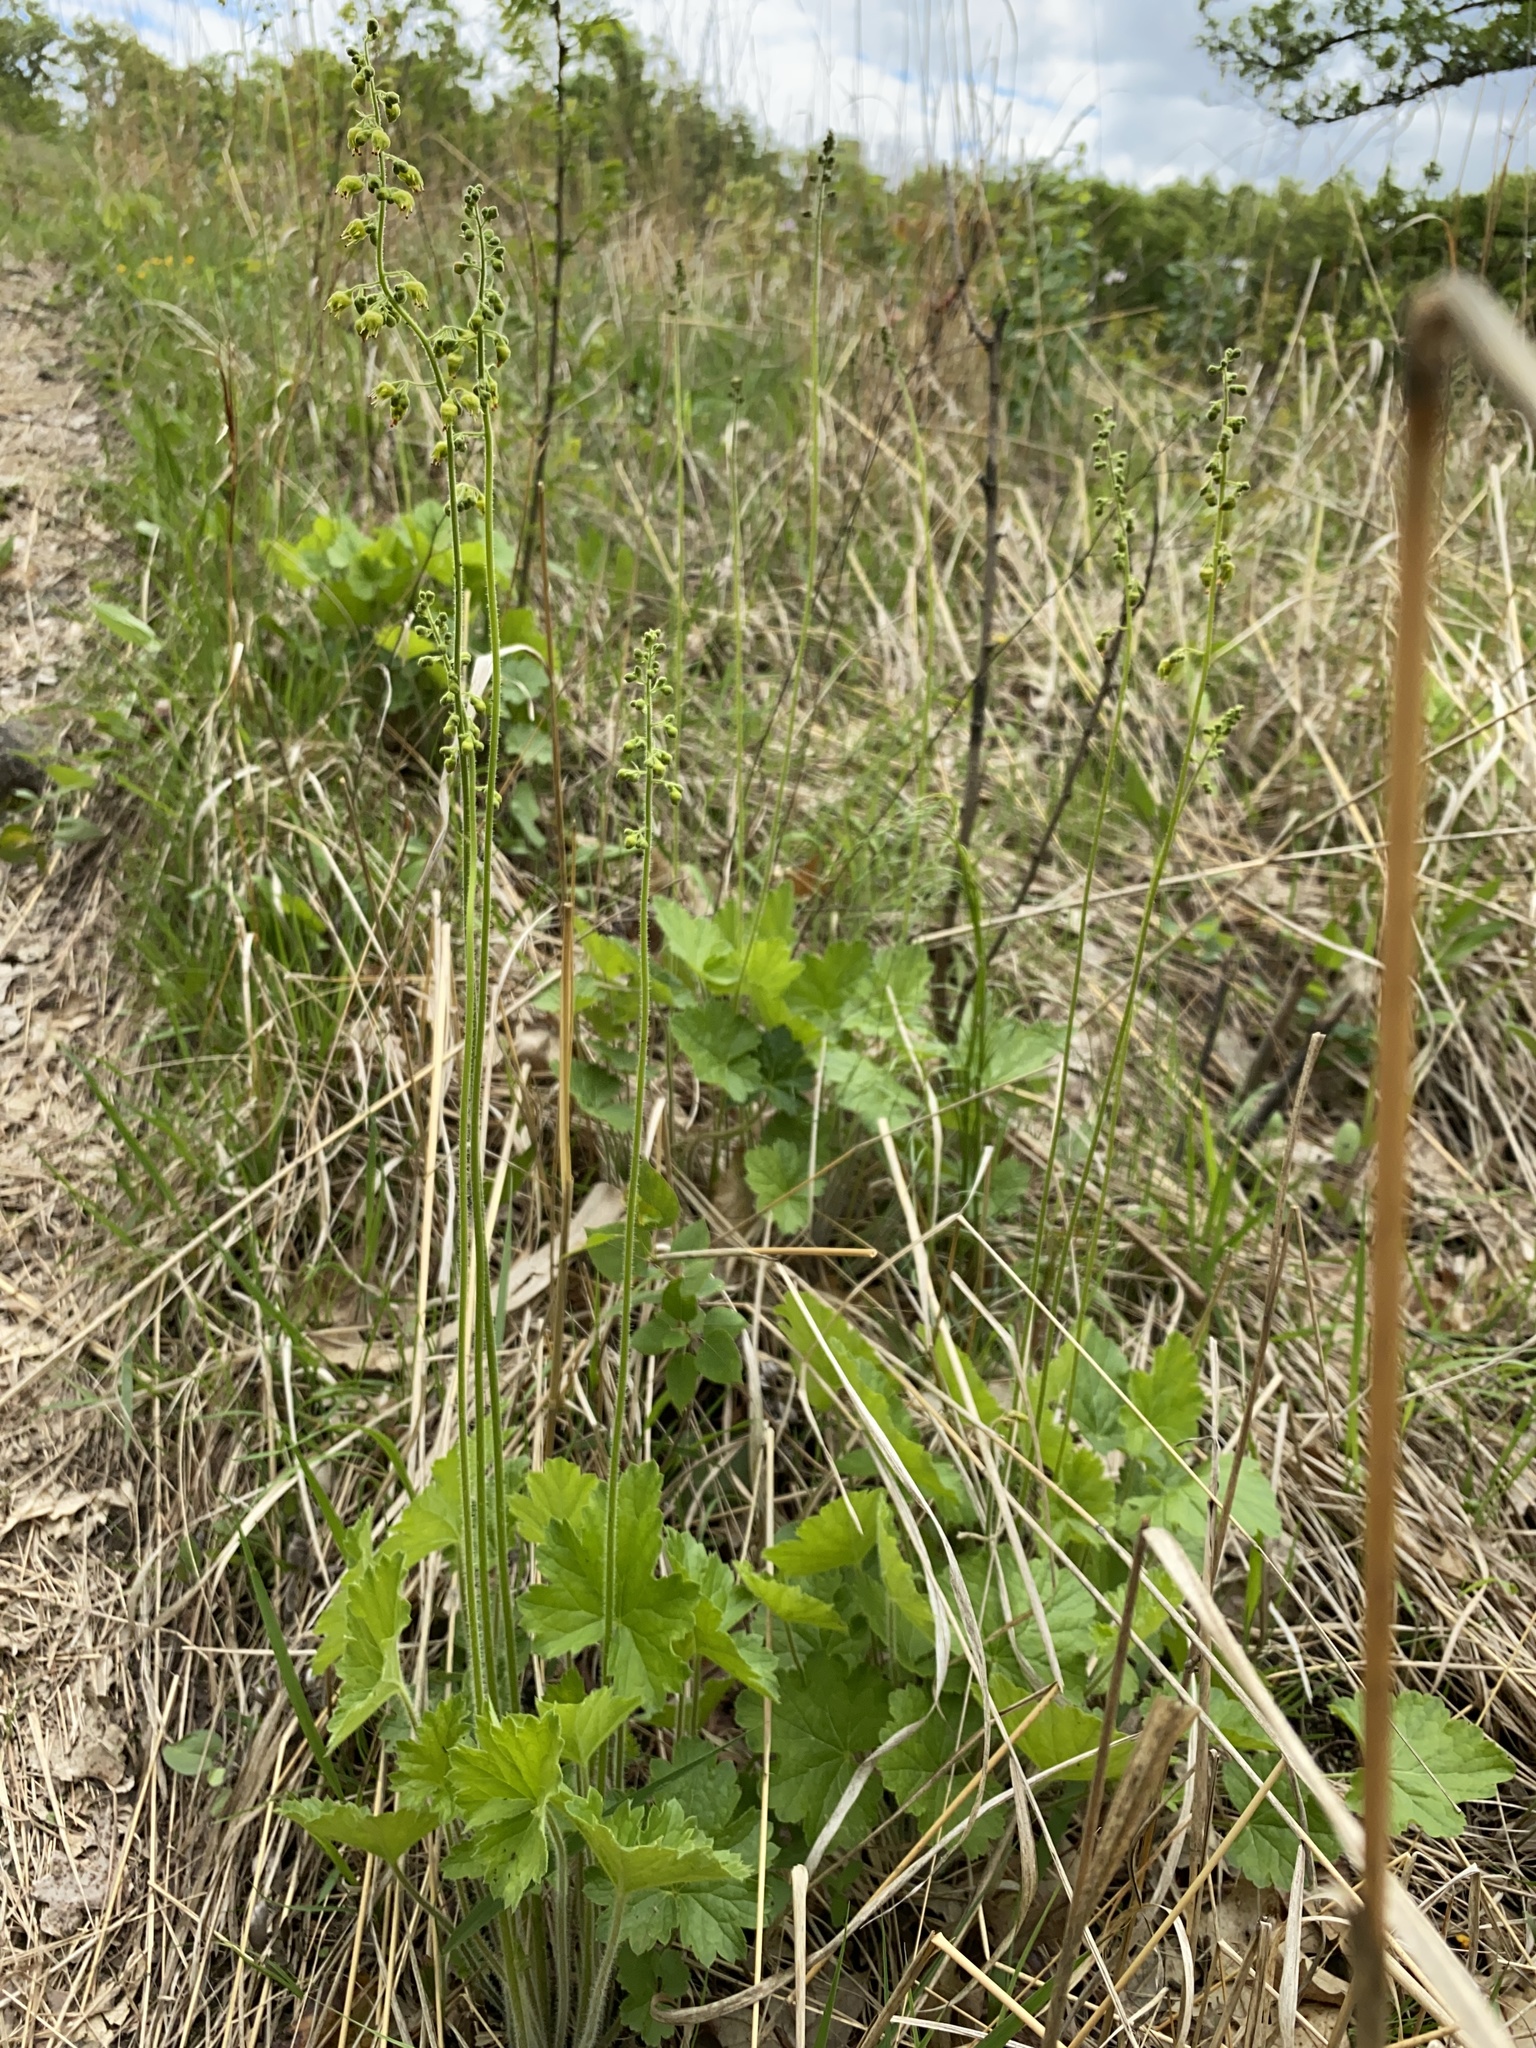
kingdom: Plantae
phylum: Tracheophyta
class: Magnoliopsida
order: Saxifragales
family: Saxifragaceae
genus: Heuchera
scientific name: Heuchera richardsonii
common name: Richardson's alumroot
